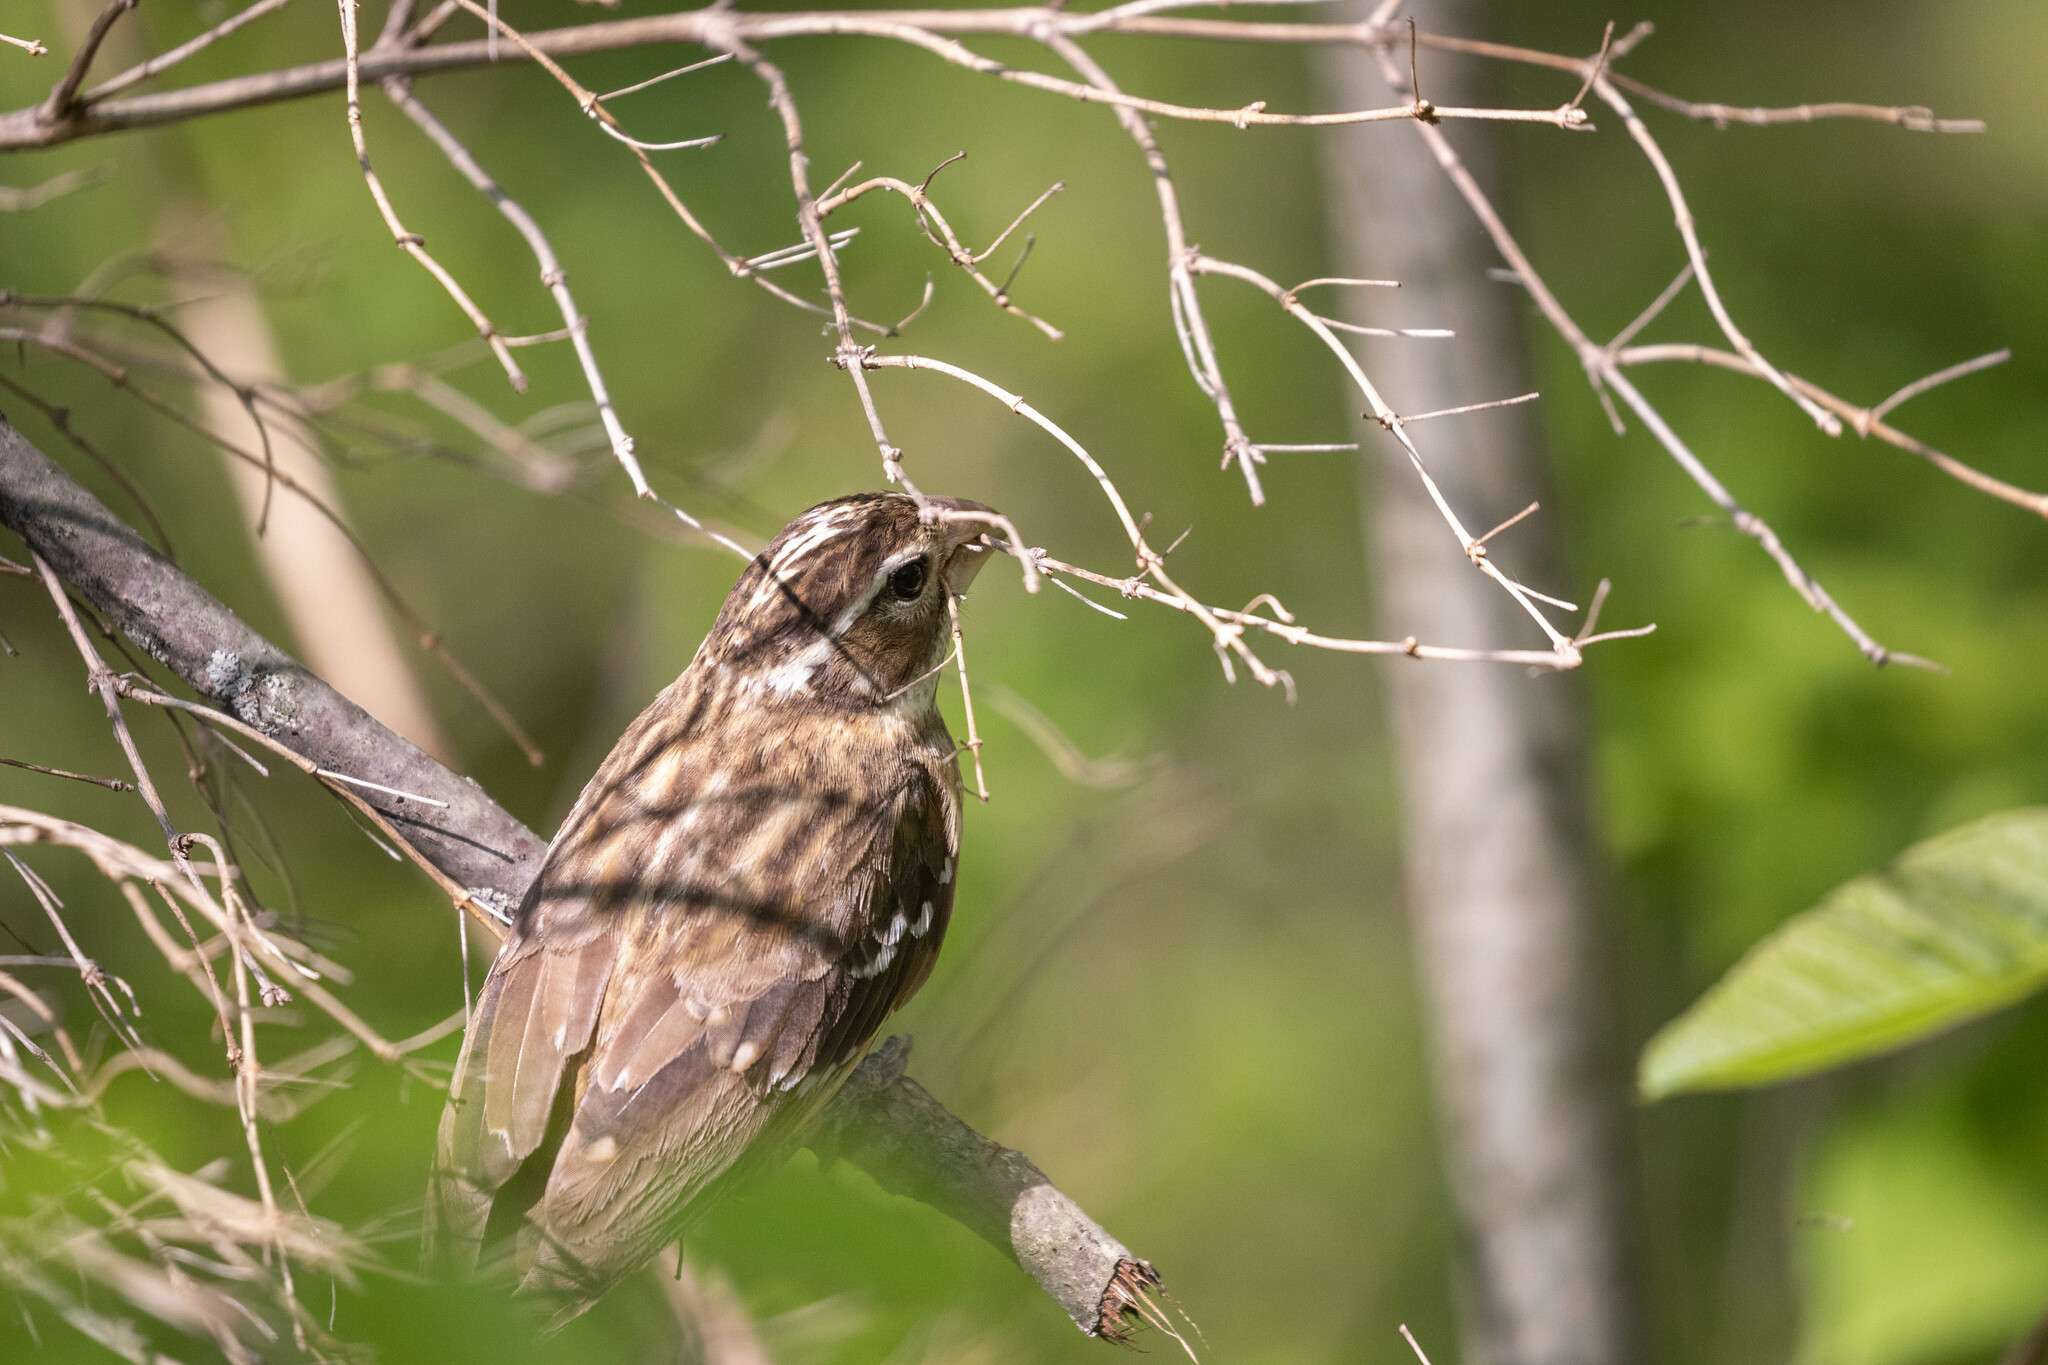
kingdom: Animalia
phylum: Chordata
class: Aves
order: Passeriformes
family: Cardinalidae
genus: Pheucticus
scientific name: Pheucticus ludovicianus
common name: Rose-breasted grosbeak
